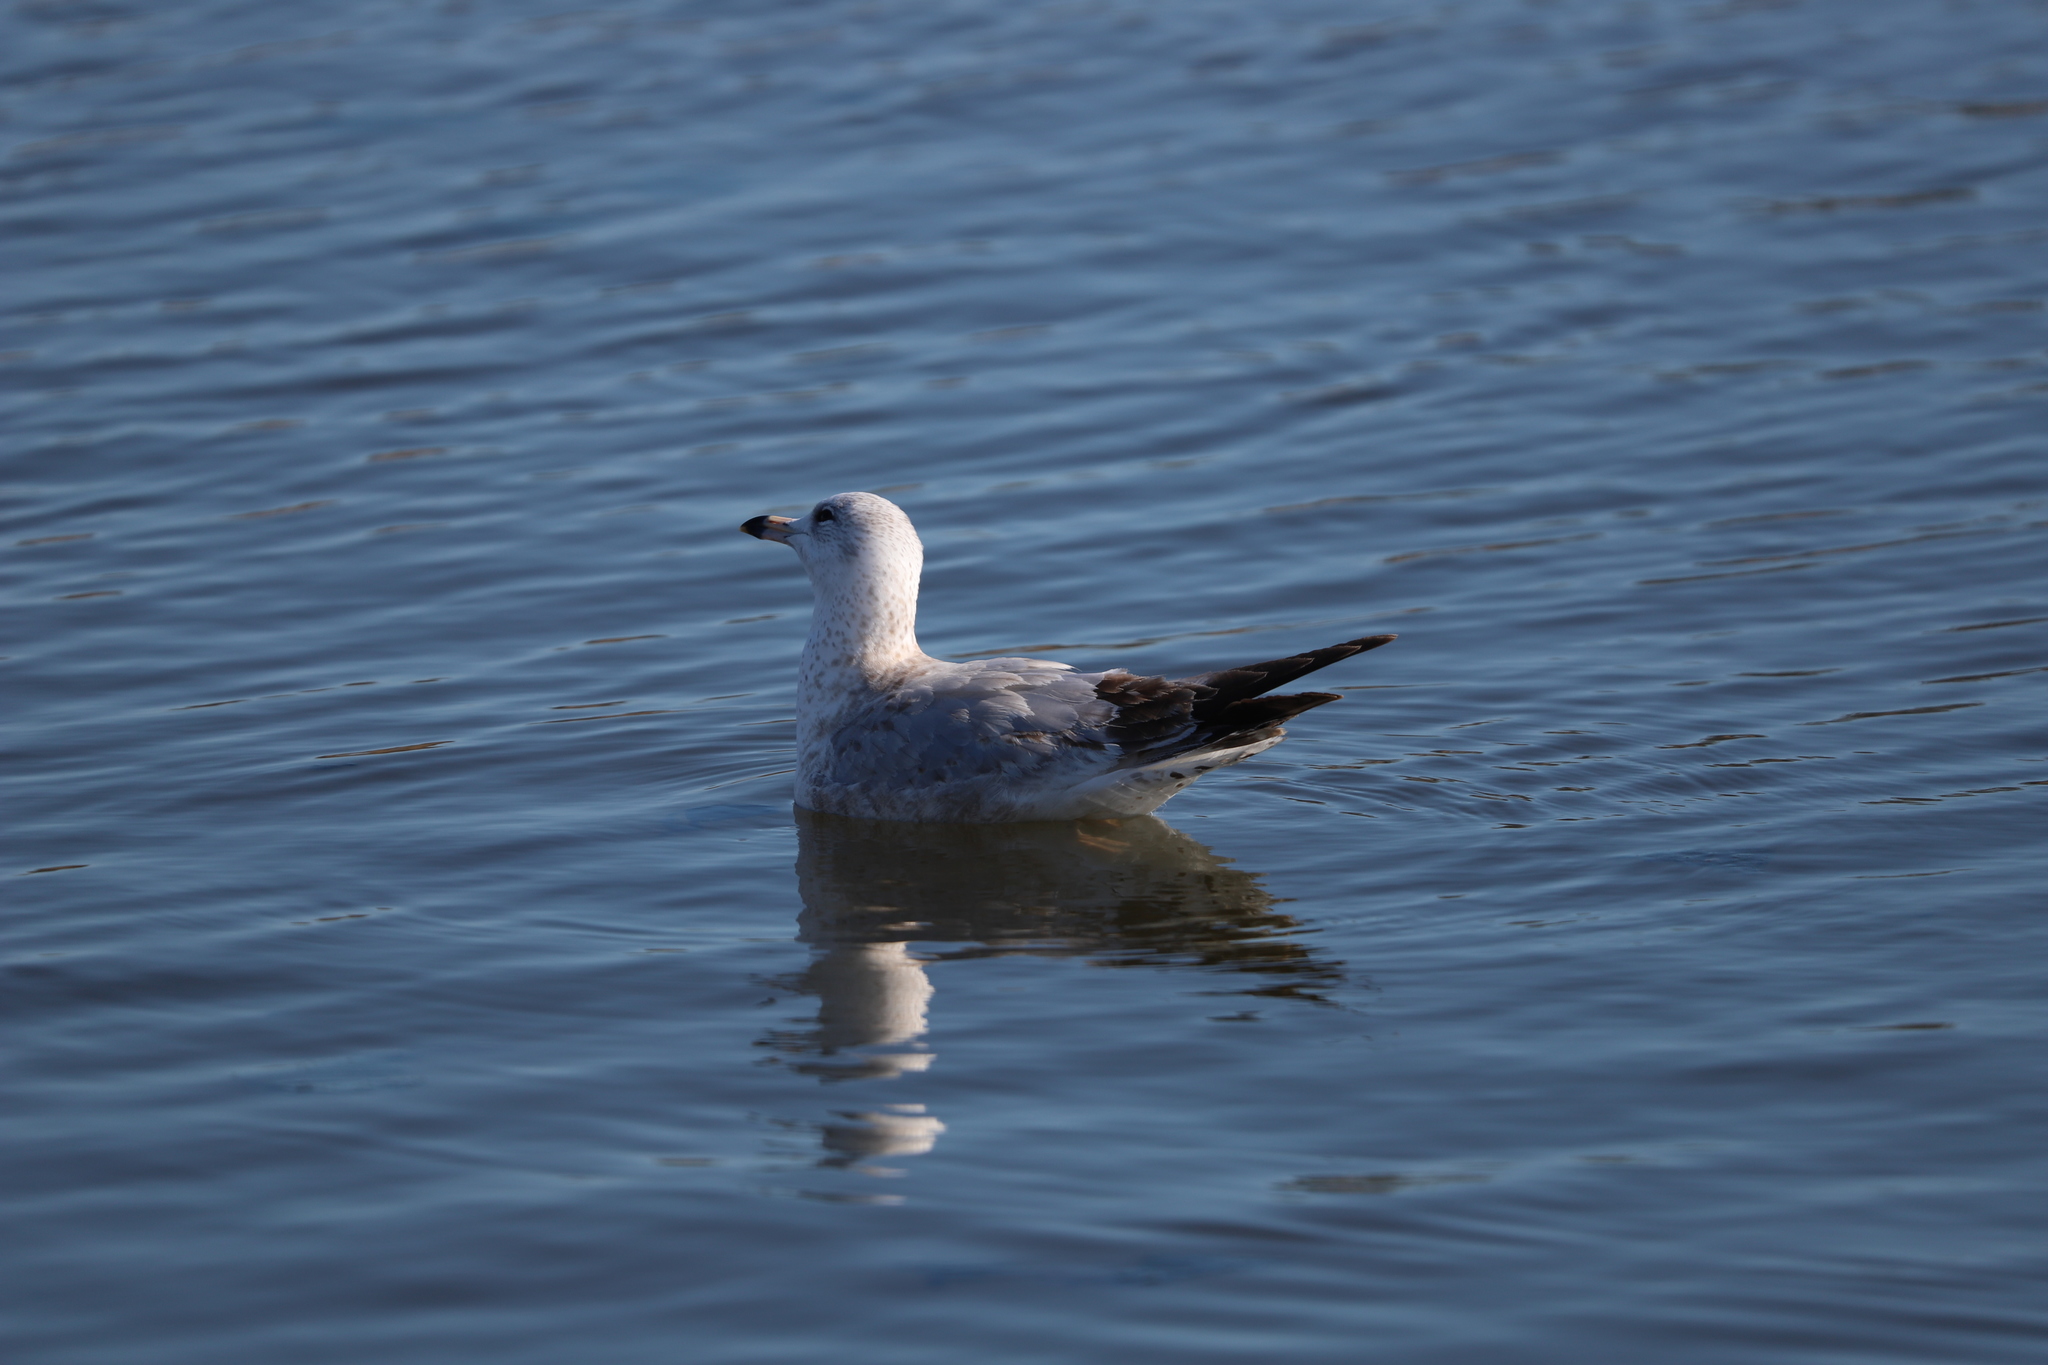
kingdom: Animalia
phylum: Chordata
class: Aves
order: Charadriiformes
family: Laridae
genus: Larus
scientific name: Larus delawarensis
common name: Ring-billed gull
